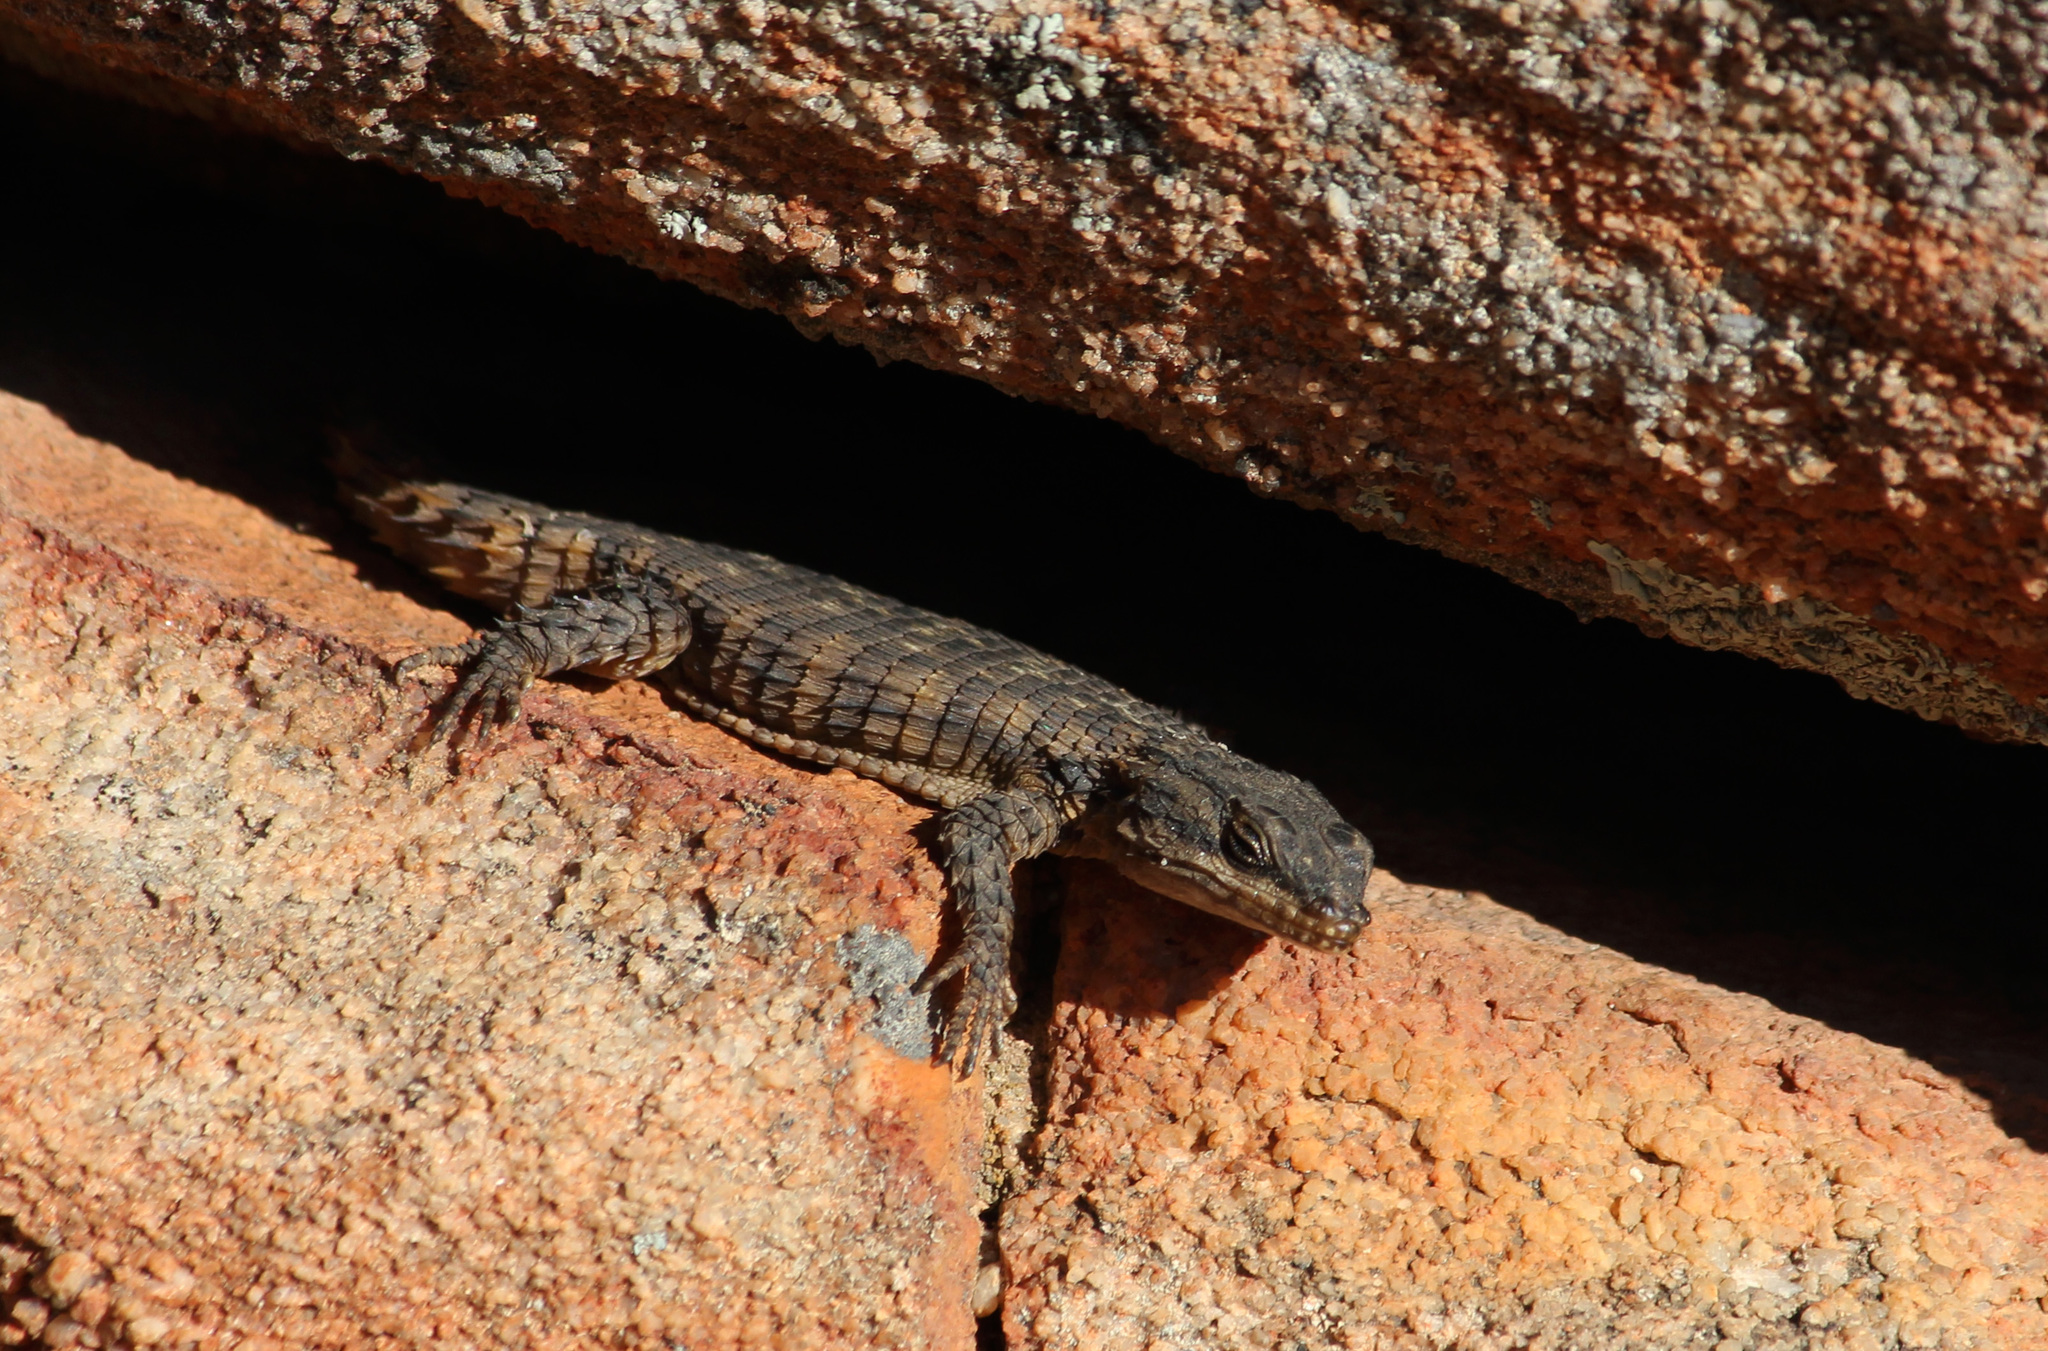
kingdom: Animalia
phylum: Chordata
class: Squamata
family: Cordylidae
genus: Cordylus
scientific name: Cordylus mclachlani
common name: Mclachlan's girdled lizard
